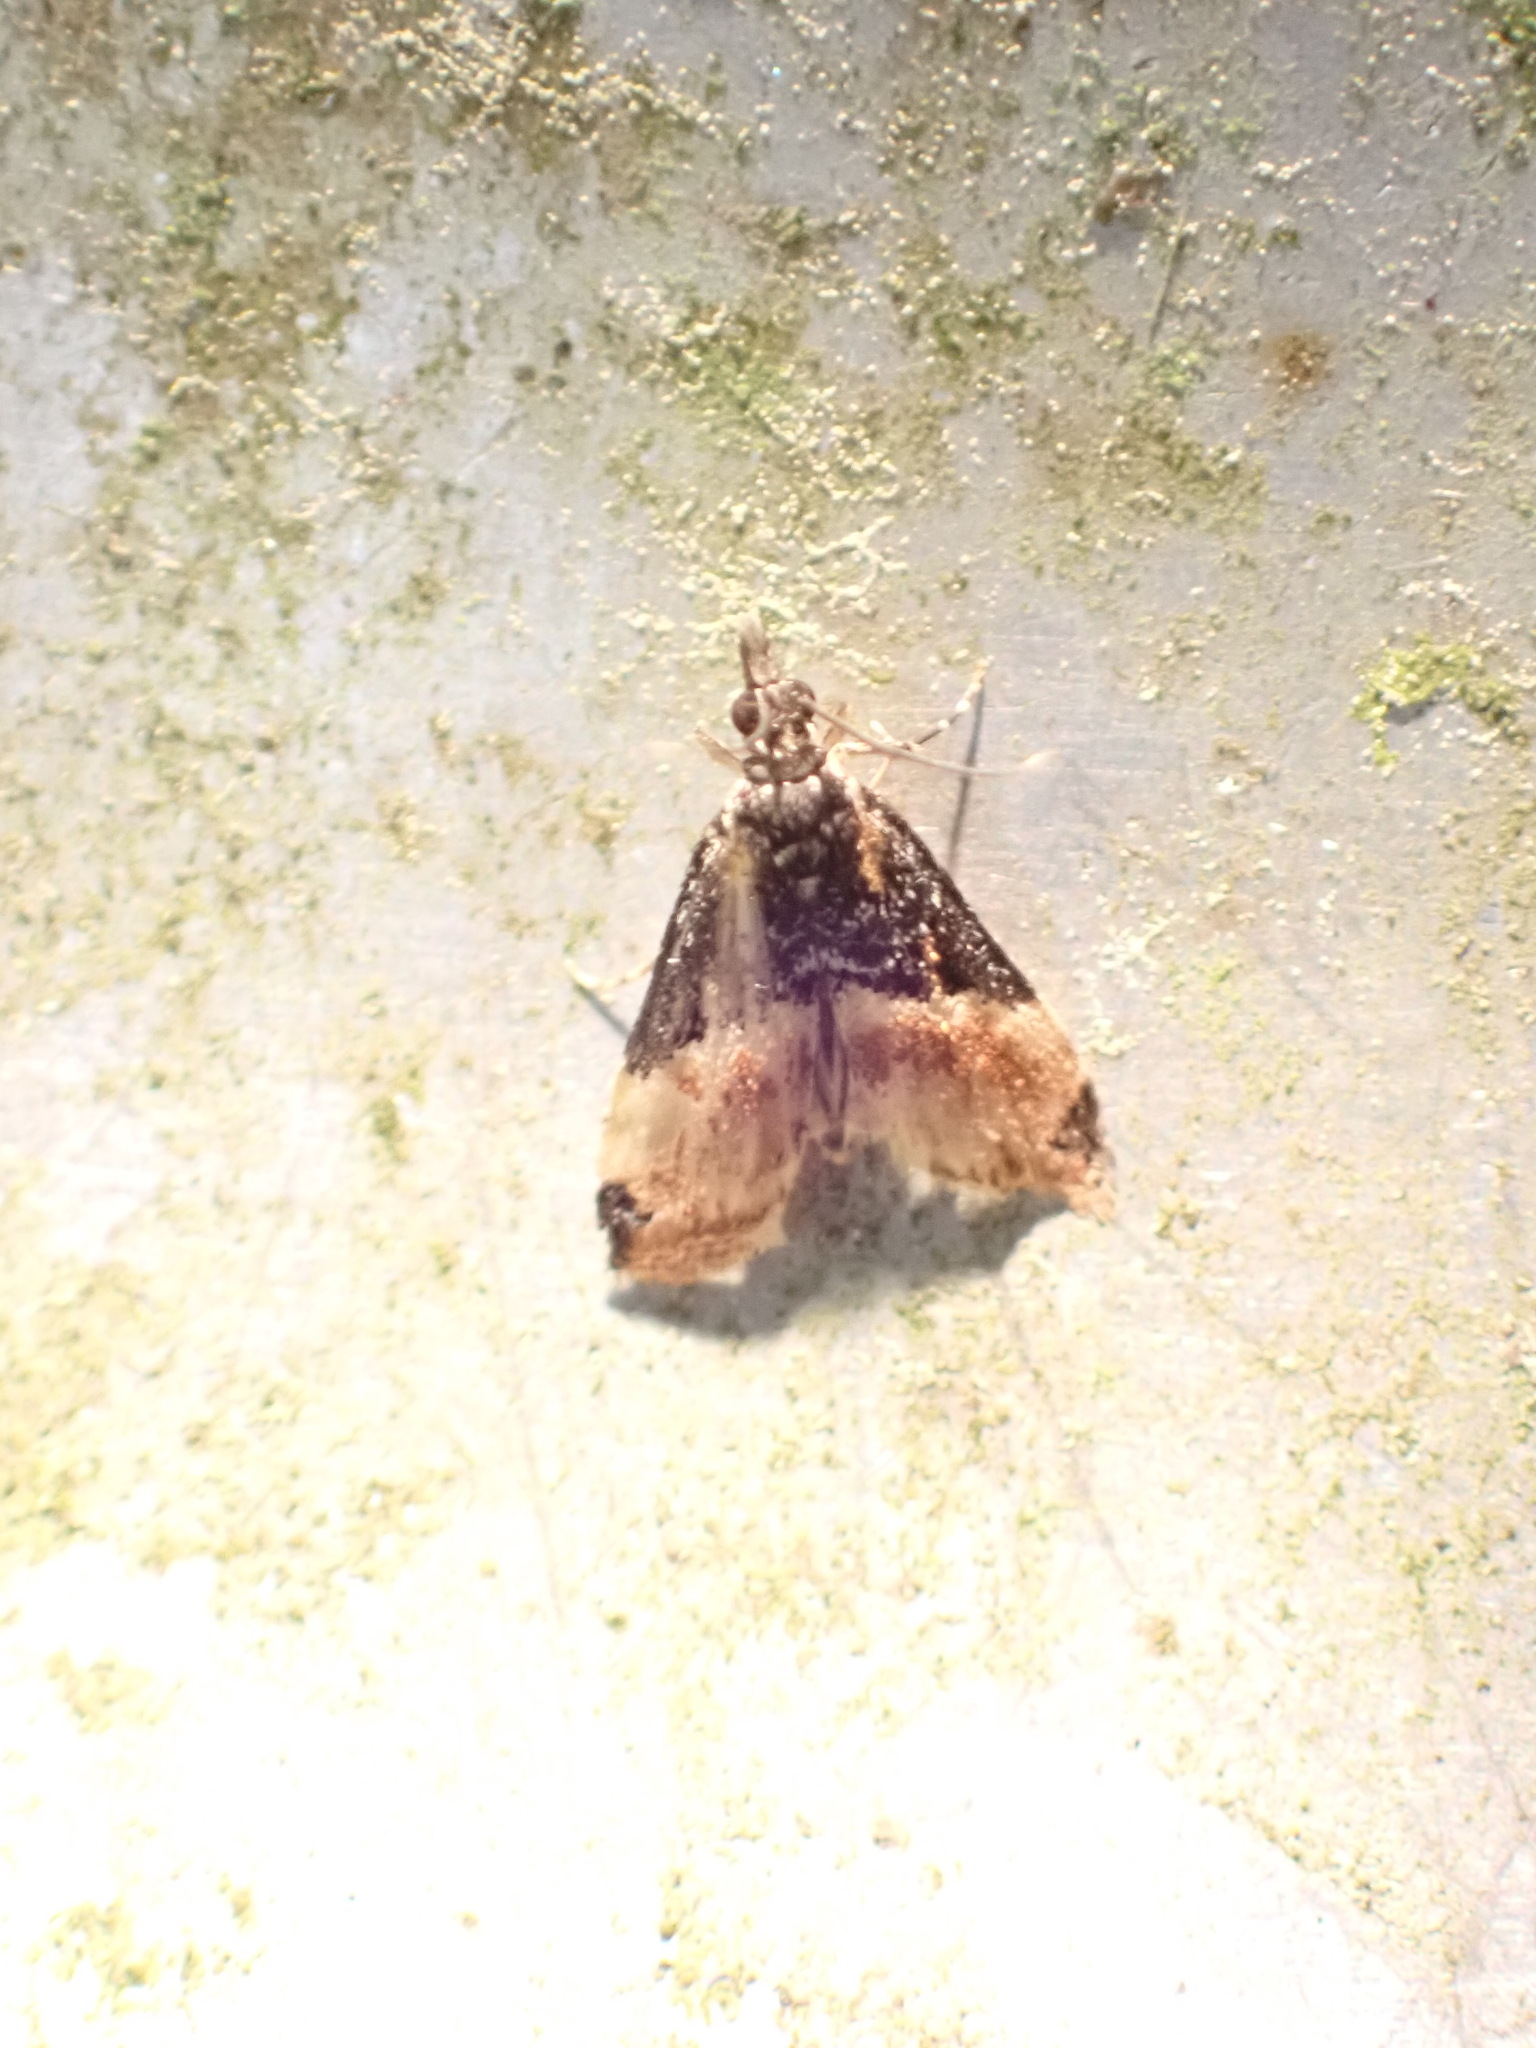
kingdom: Animalia
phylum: Arthropoda
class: Insecta
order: Lepidoptera
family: Crambidae
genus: Eudonia
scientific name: Eudonia chlamydota
